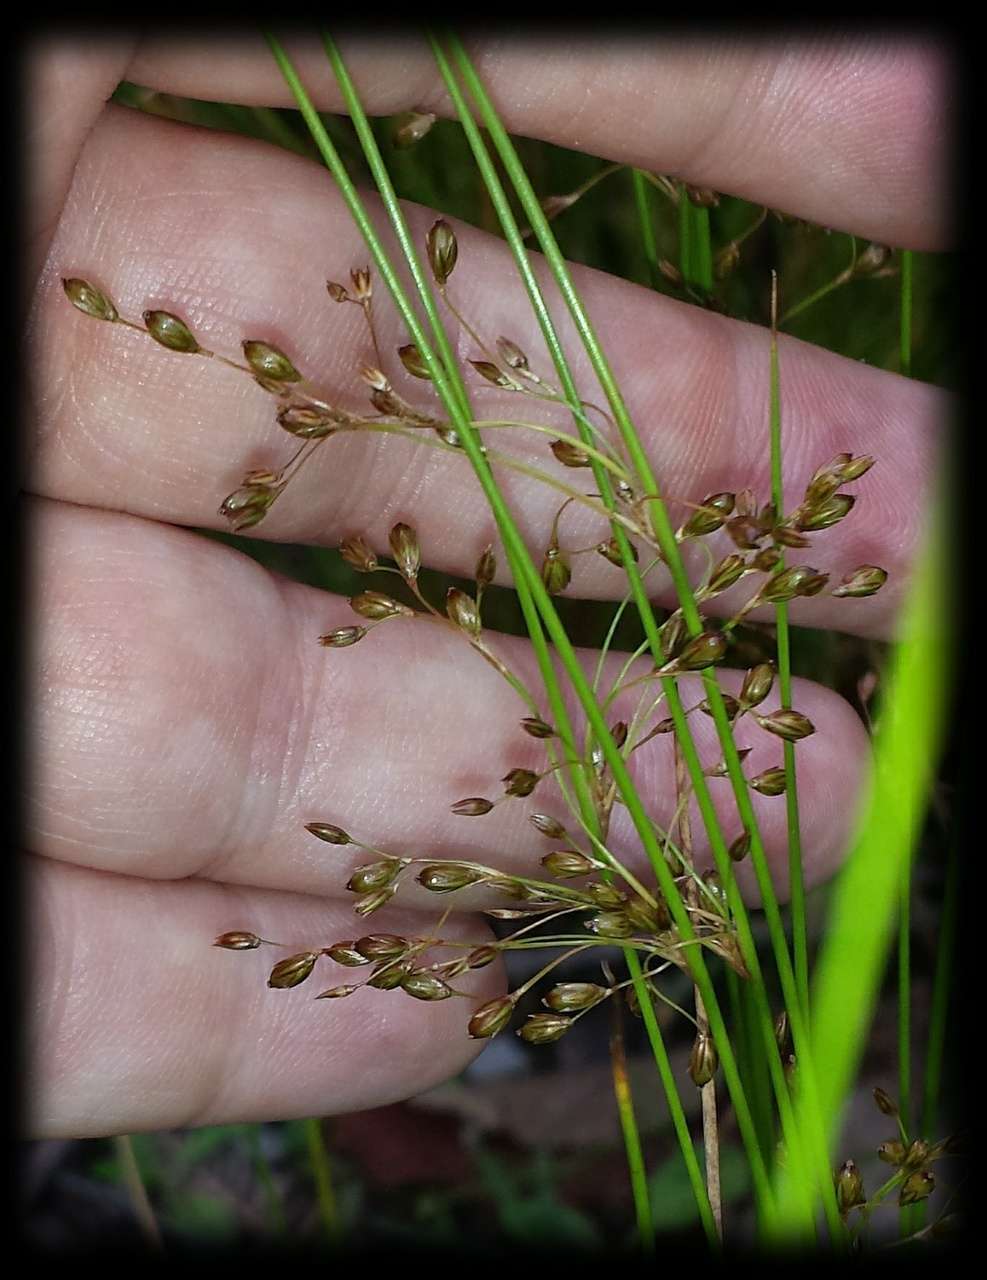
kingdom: Plantae
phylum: Tracheophyta
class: Liliopsida
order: Poales
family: Juncaceae
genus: Juncus
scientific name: Juncus pauciflorus
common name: Loose-flowered rush
